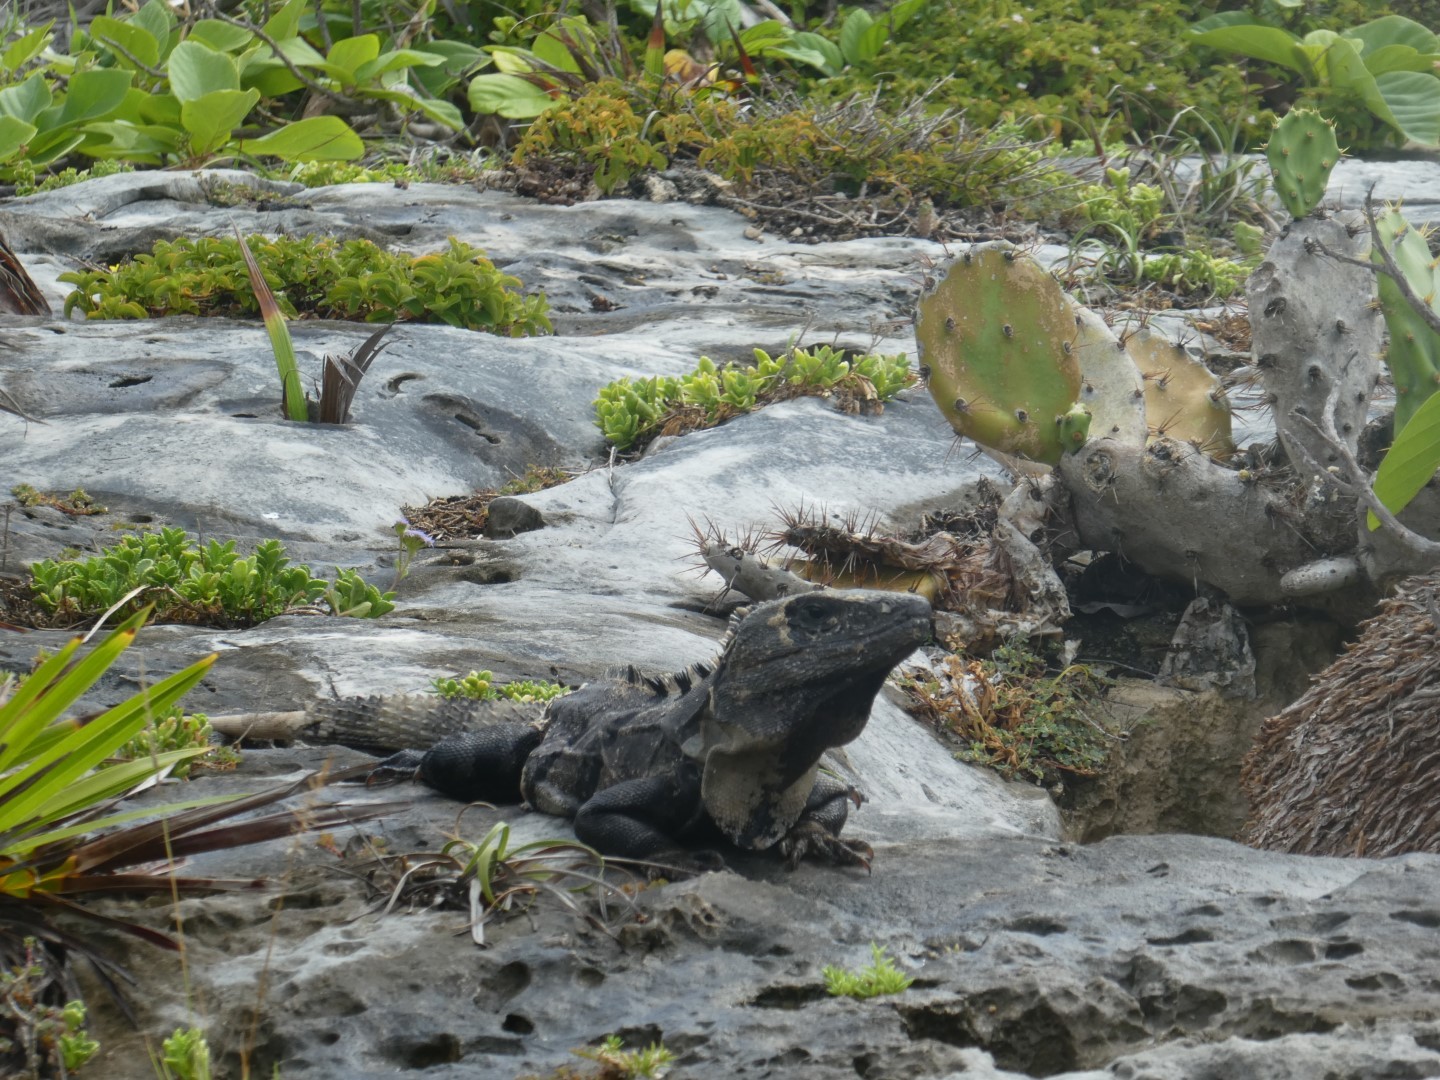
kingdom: Animalia
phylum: Chordata
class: Squamata
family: Iguanidae
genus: Ctenosaura
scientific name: Ctenosaura similis
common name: Black spiny-tailed iguana
